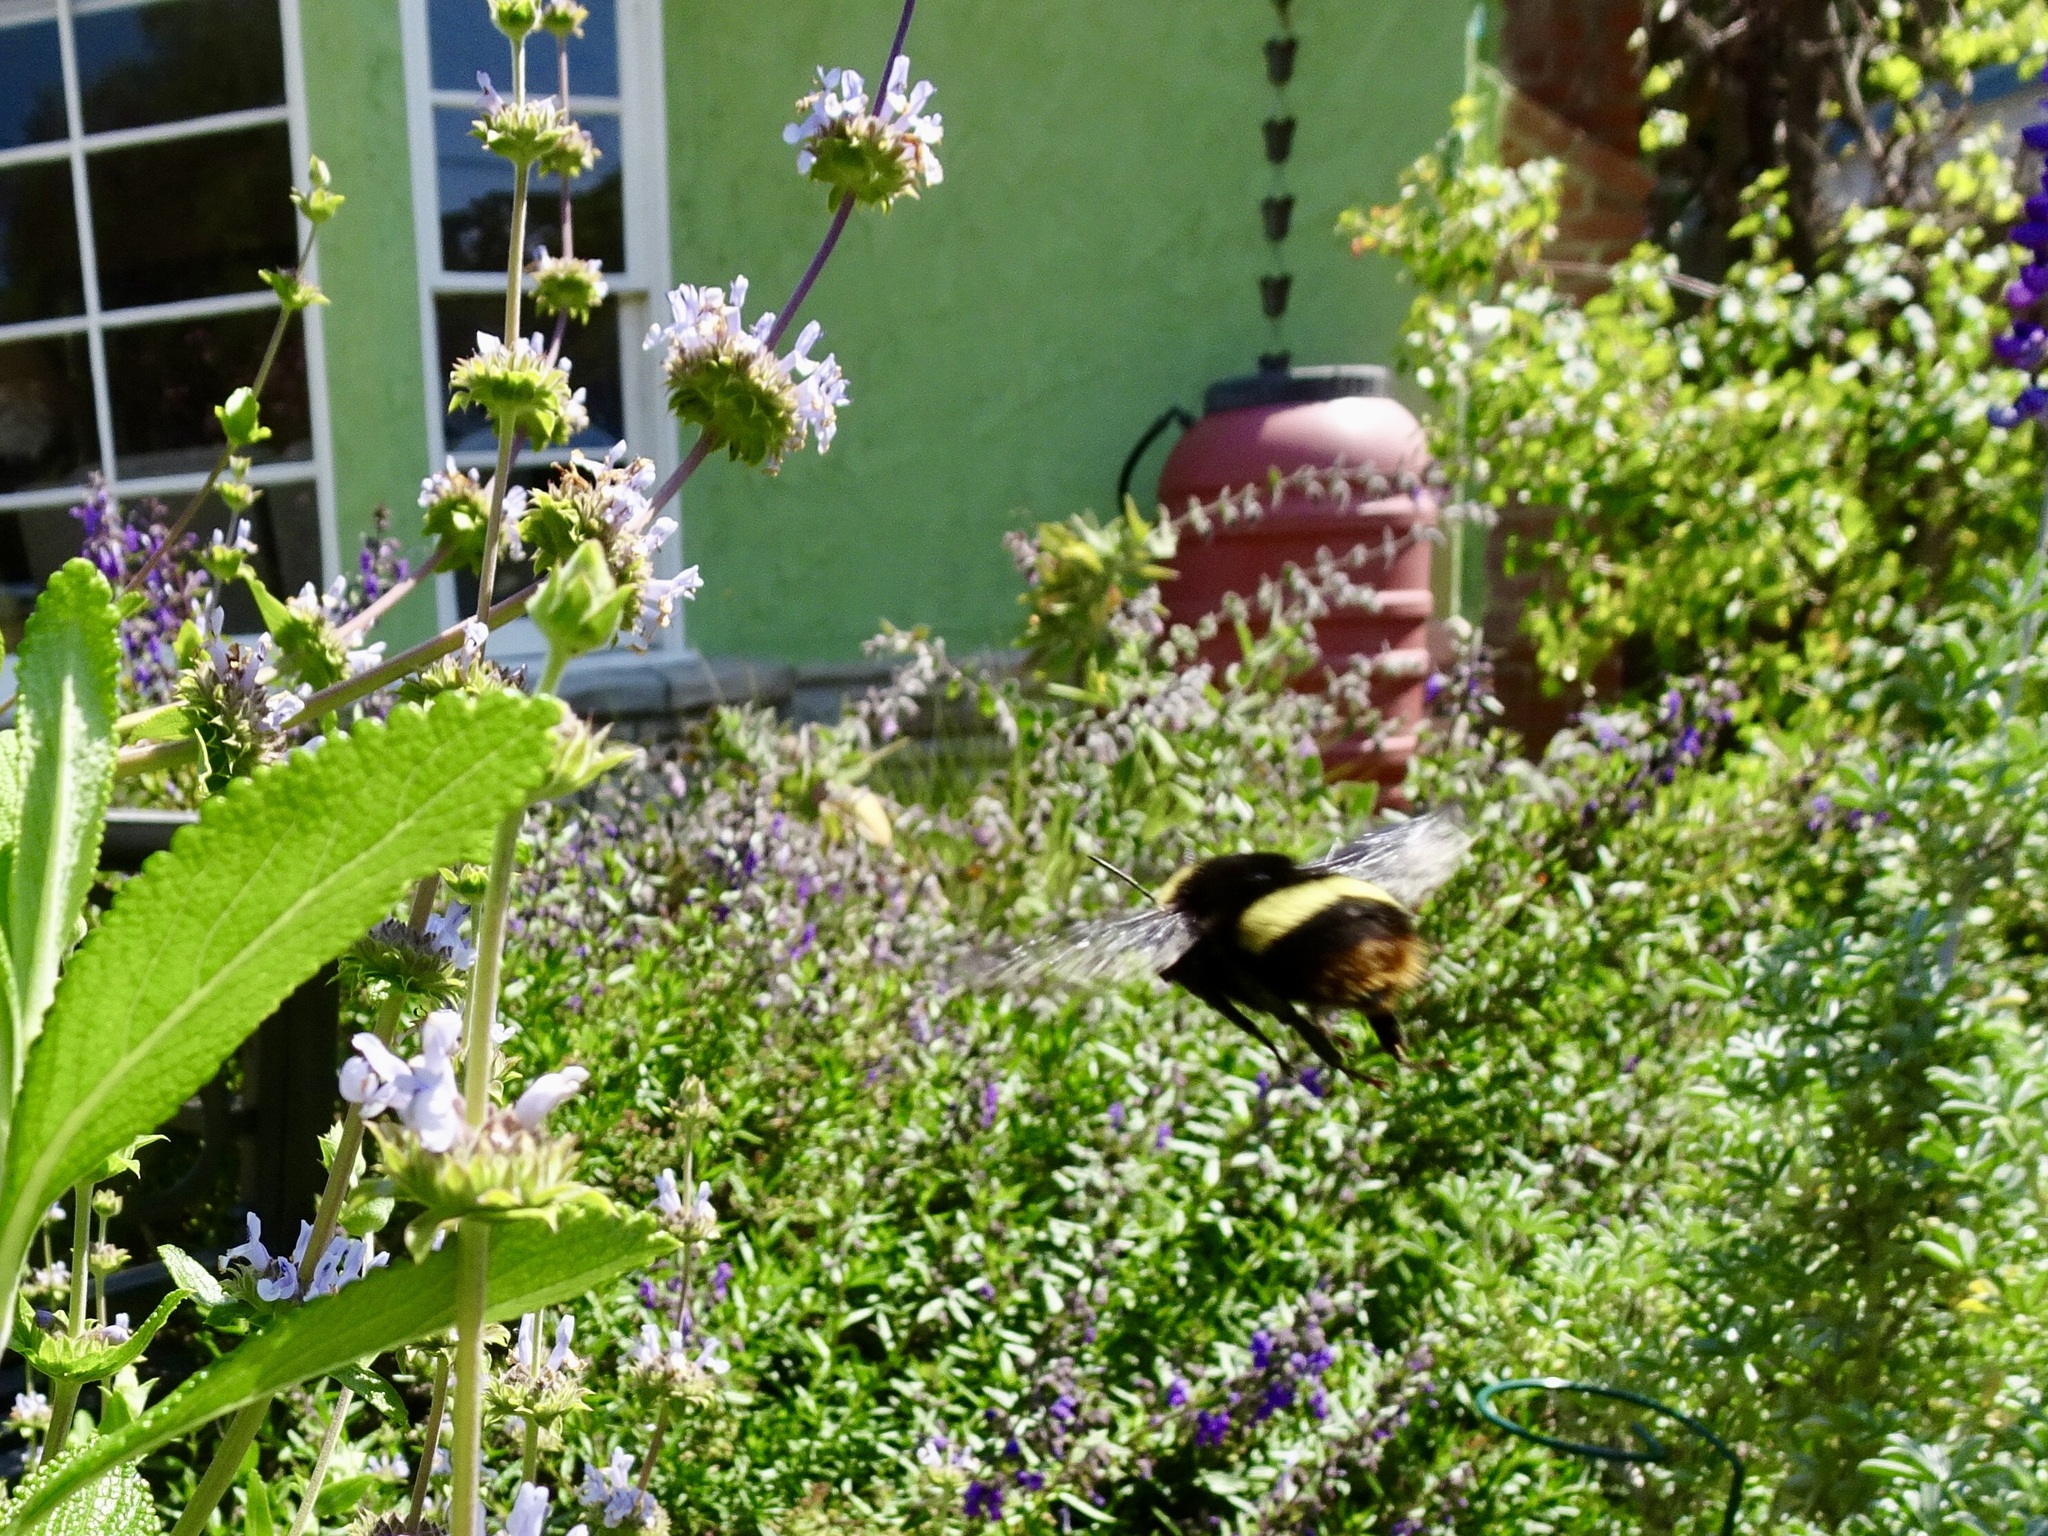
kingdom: Animalia
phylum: Arthropoda
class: Insecta
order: Hymenoptera
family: Apidae
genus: Bombus
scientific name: Bombus crotchii
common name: Crotch bumble bee
